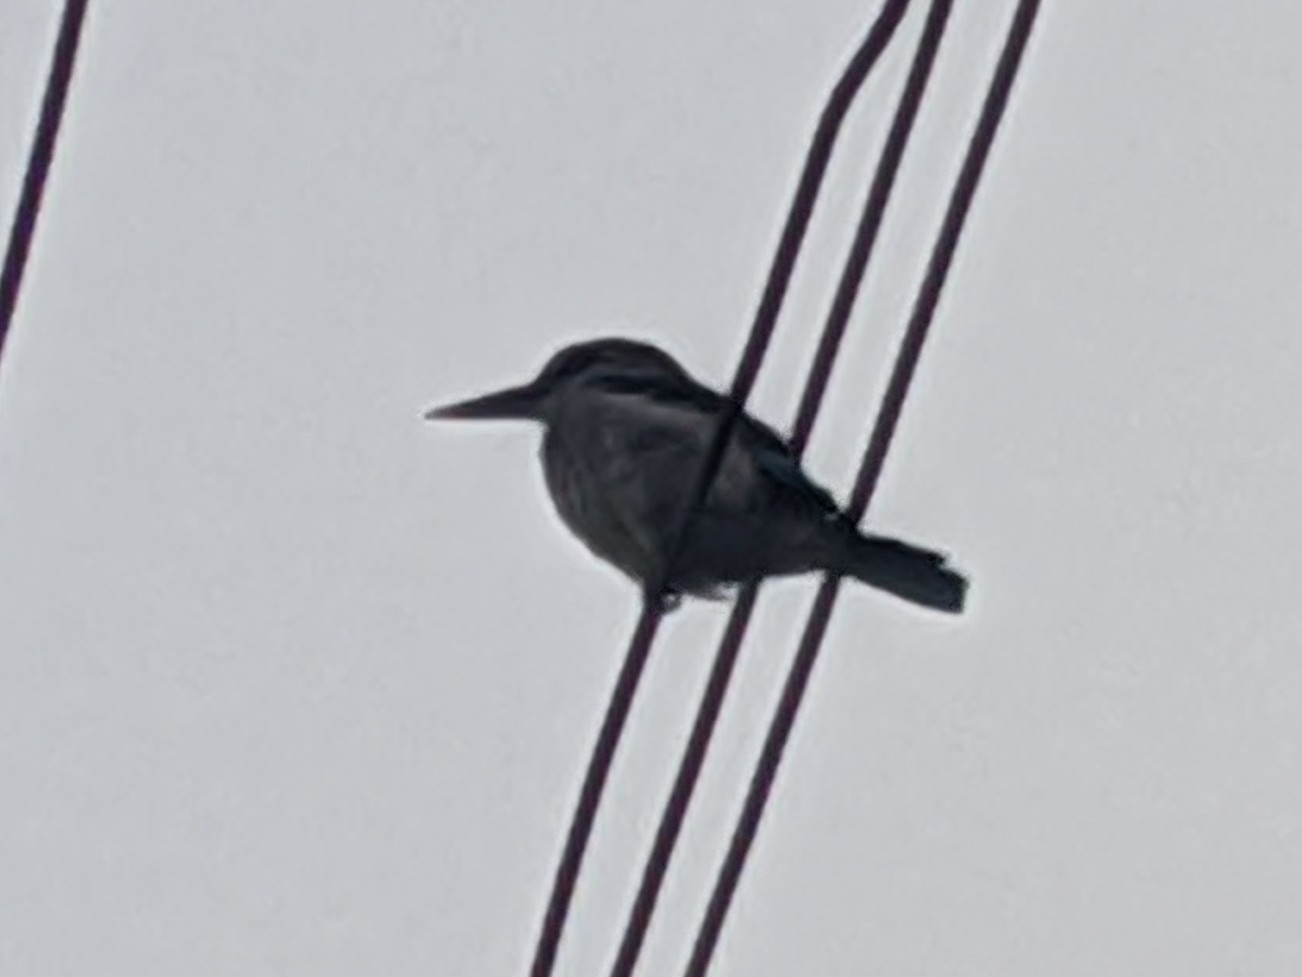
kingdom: Animalia
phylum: Chordata
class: Aves
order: Coraciiformes
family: Alcedinidae
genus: Halcyon
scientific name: Halcyon senegalensis
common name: Woodland kingfisher
